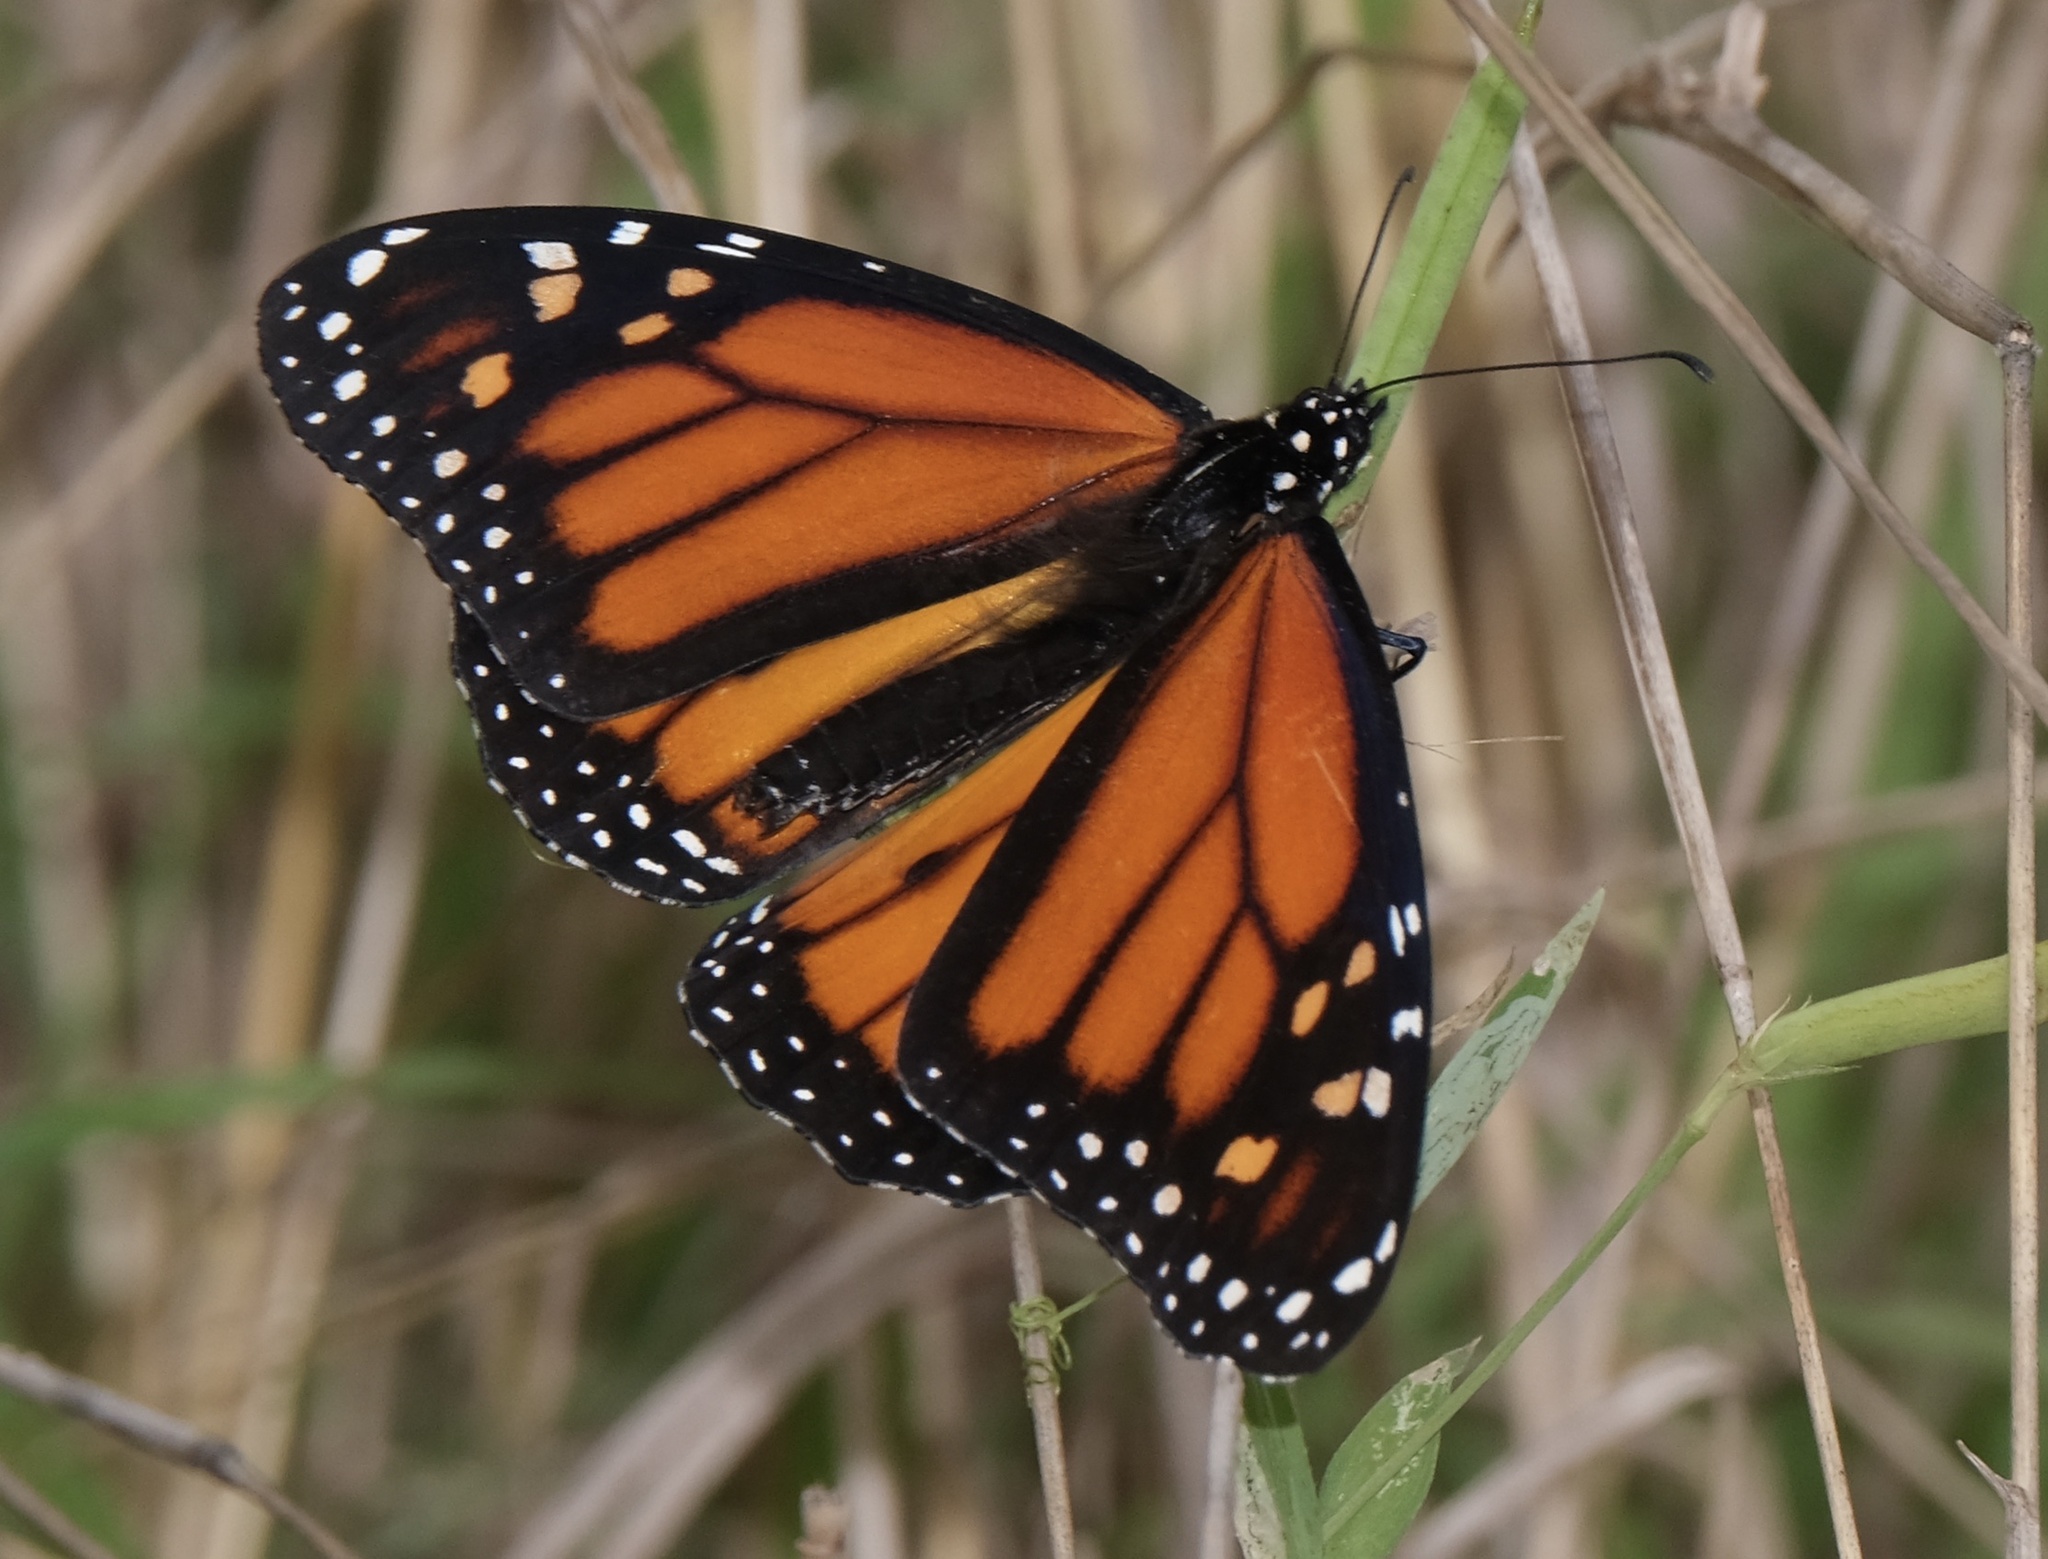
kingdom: Animalia
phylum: Arthropoda
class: Insecta
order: Lepidoptera
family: Nymphalidae
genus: Danaus
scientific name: Danaus plexippus
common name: Monarch
